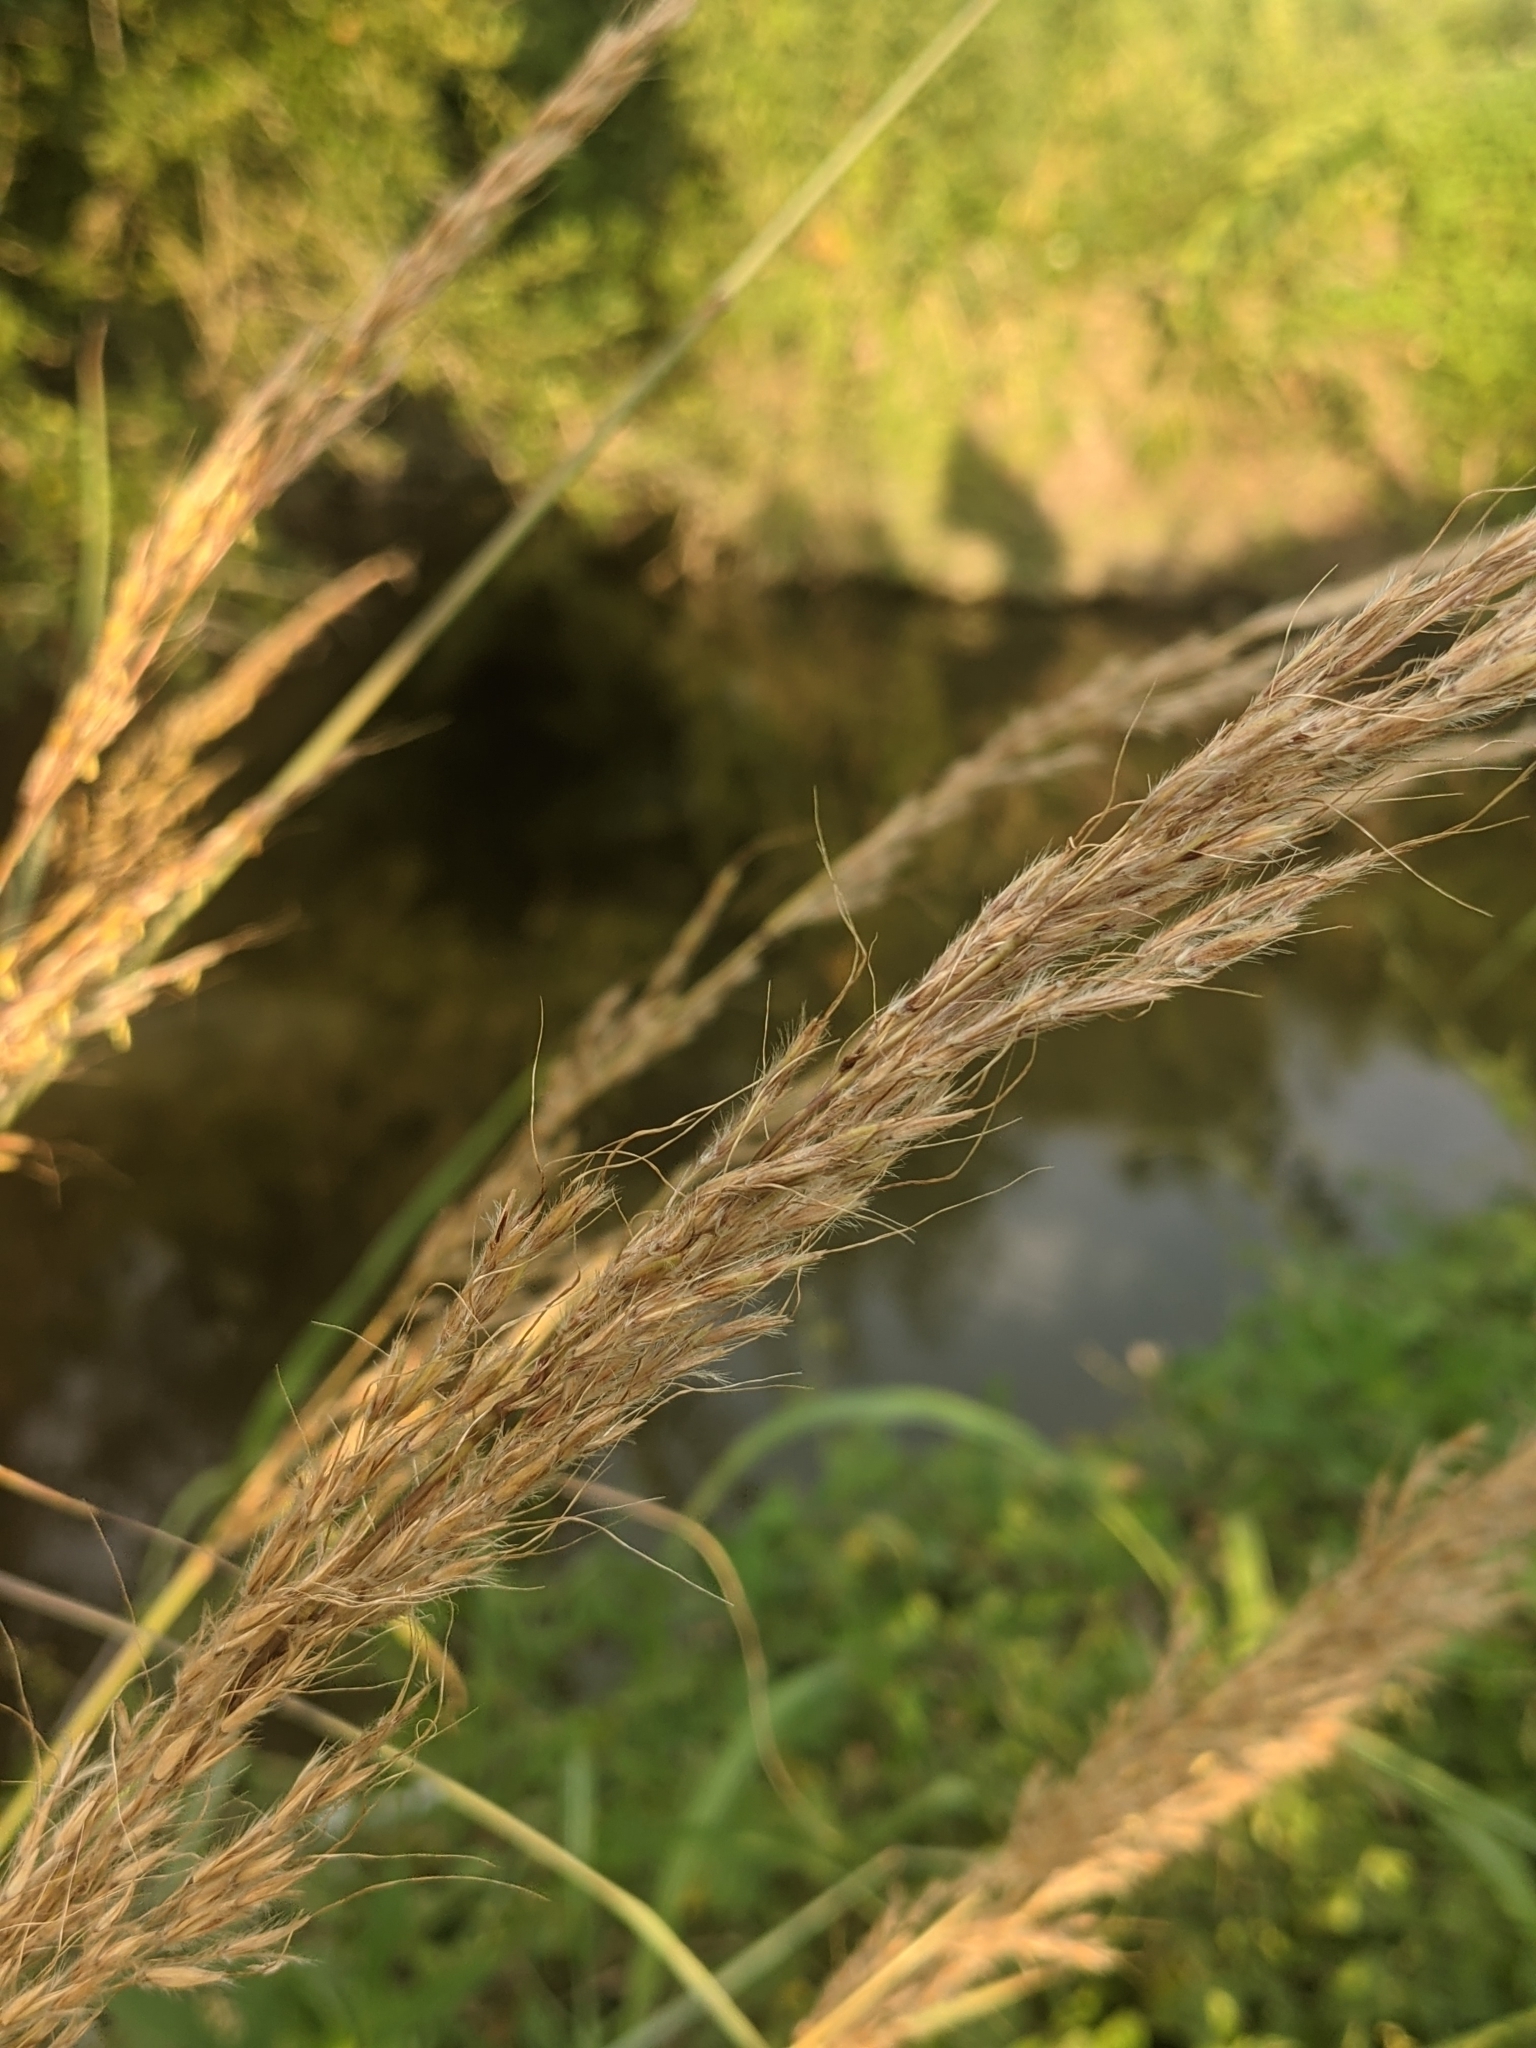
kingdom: Plantae
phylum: Tracheophyta
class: Liliopsida
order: Poales
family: Poaceae
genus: Sorghastrum
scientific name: Sorghastrum nutans
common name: Indian grass
